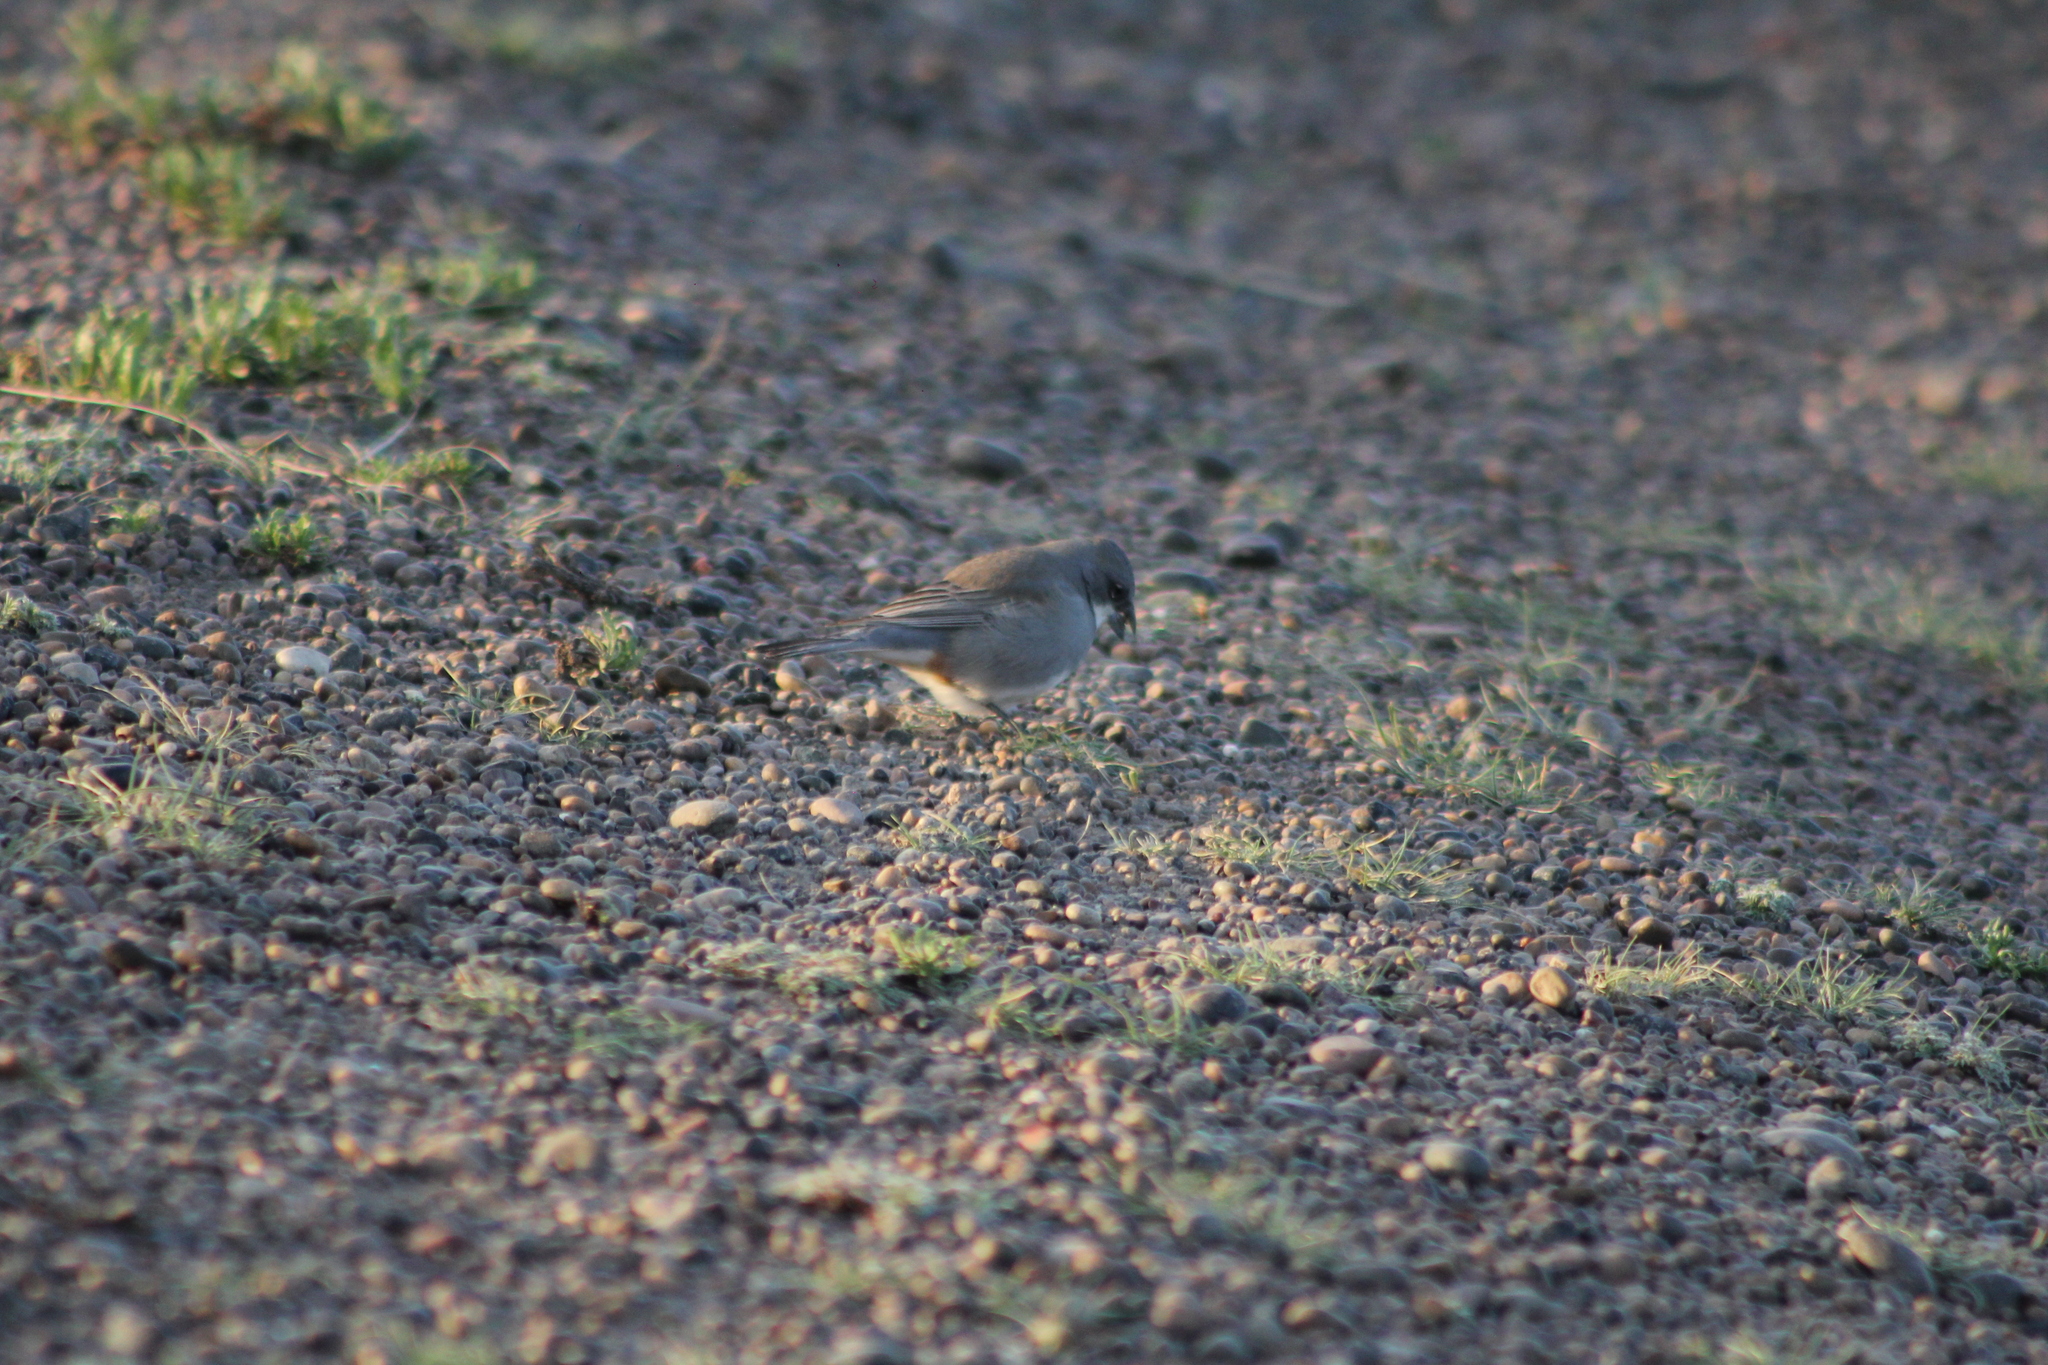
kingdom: Animalia
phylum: Chordata
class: Aves
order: Passeriformes
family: Thraupidae
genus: Diuca
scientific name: Diuca diuca
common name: Common diuca finch
